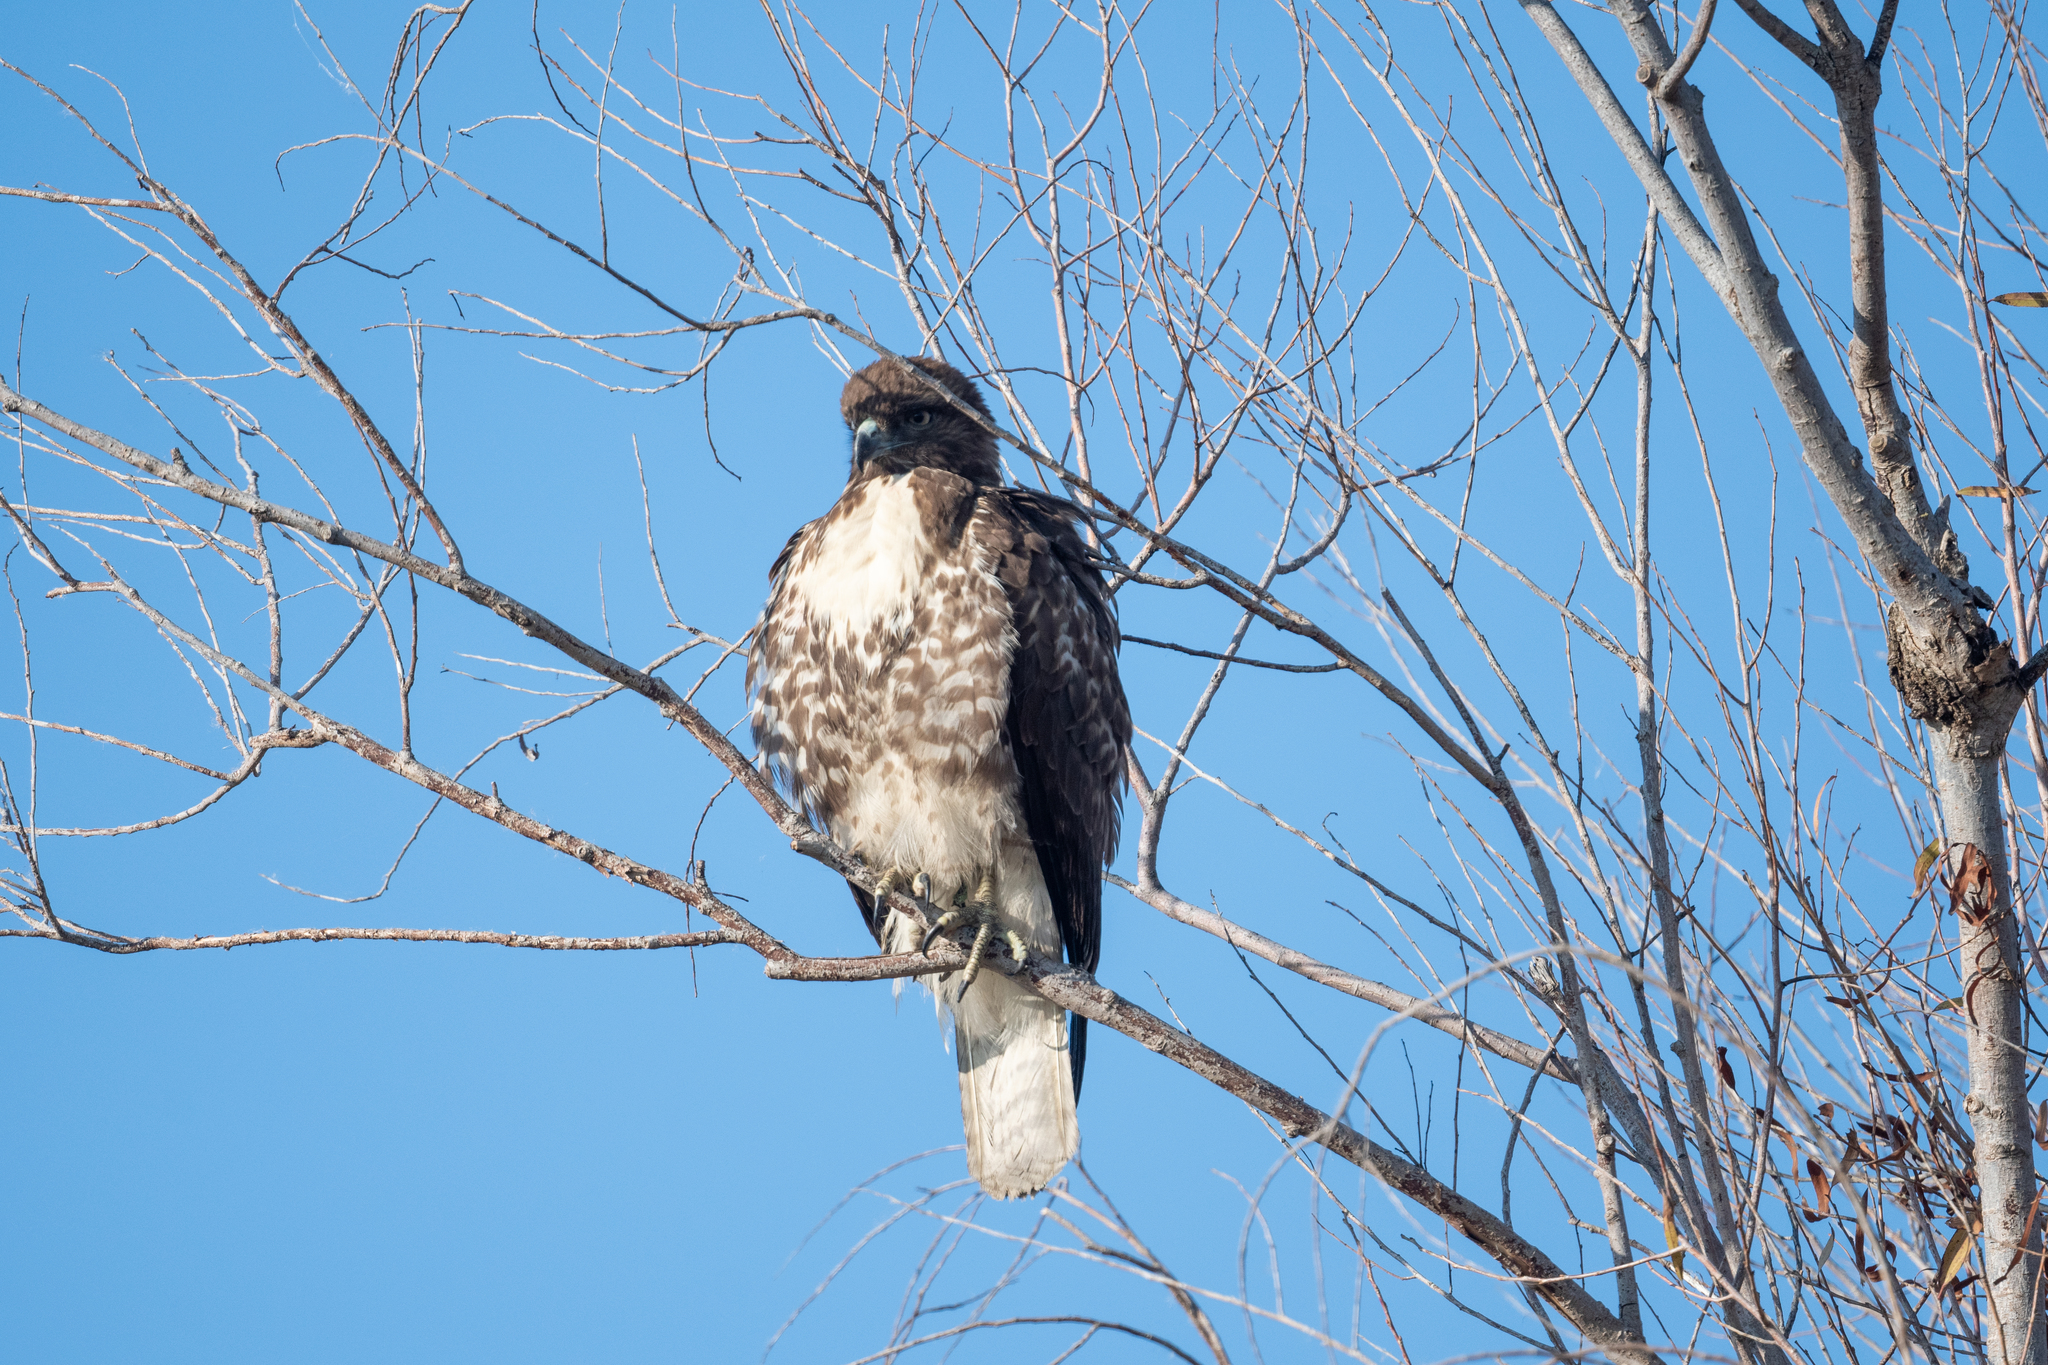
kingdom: Animalia
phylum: Chordata
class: Aves
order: Accipitriformes
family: Accipitridae
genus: Buteo
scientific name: Buteo jamaicensis
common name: Red-tailed hawk
